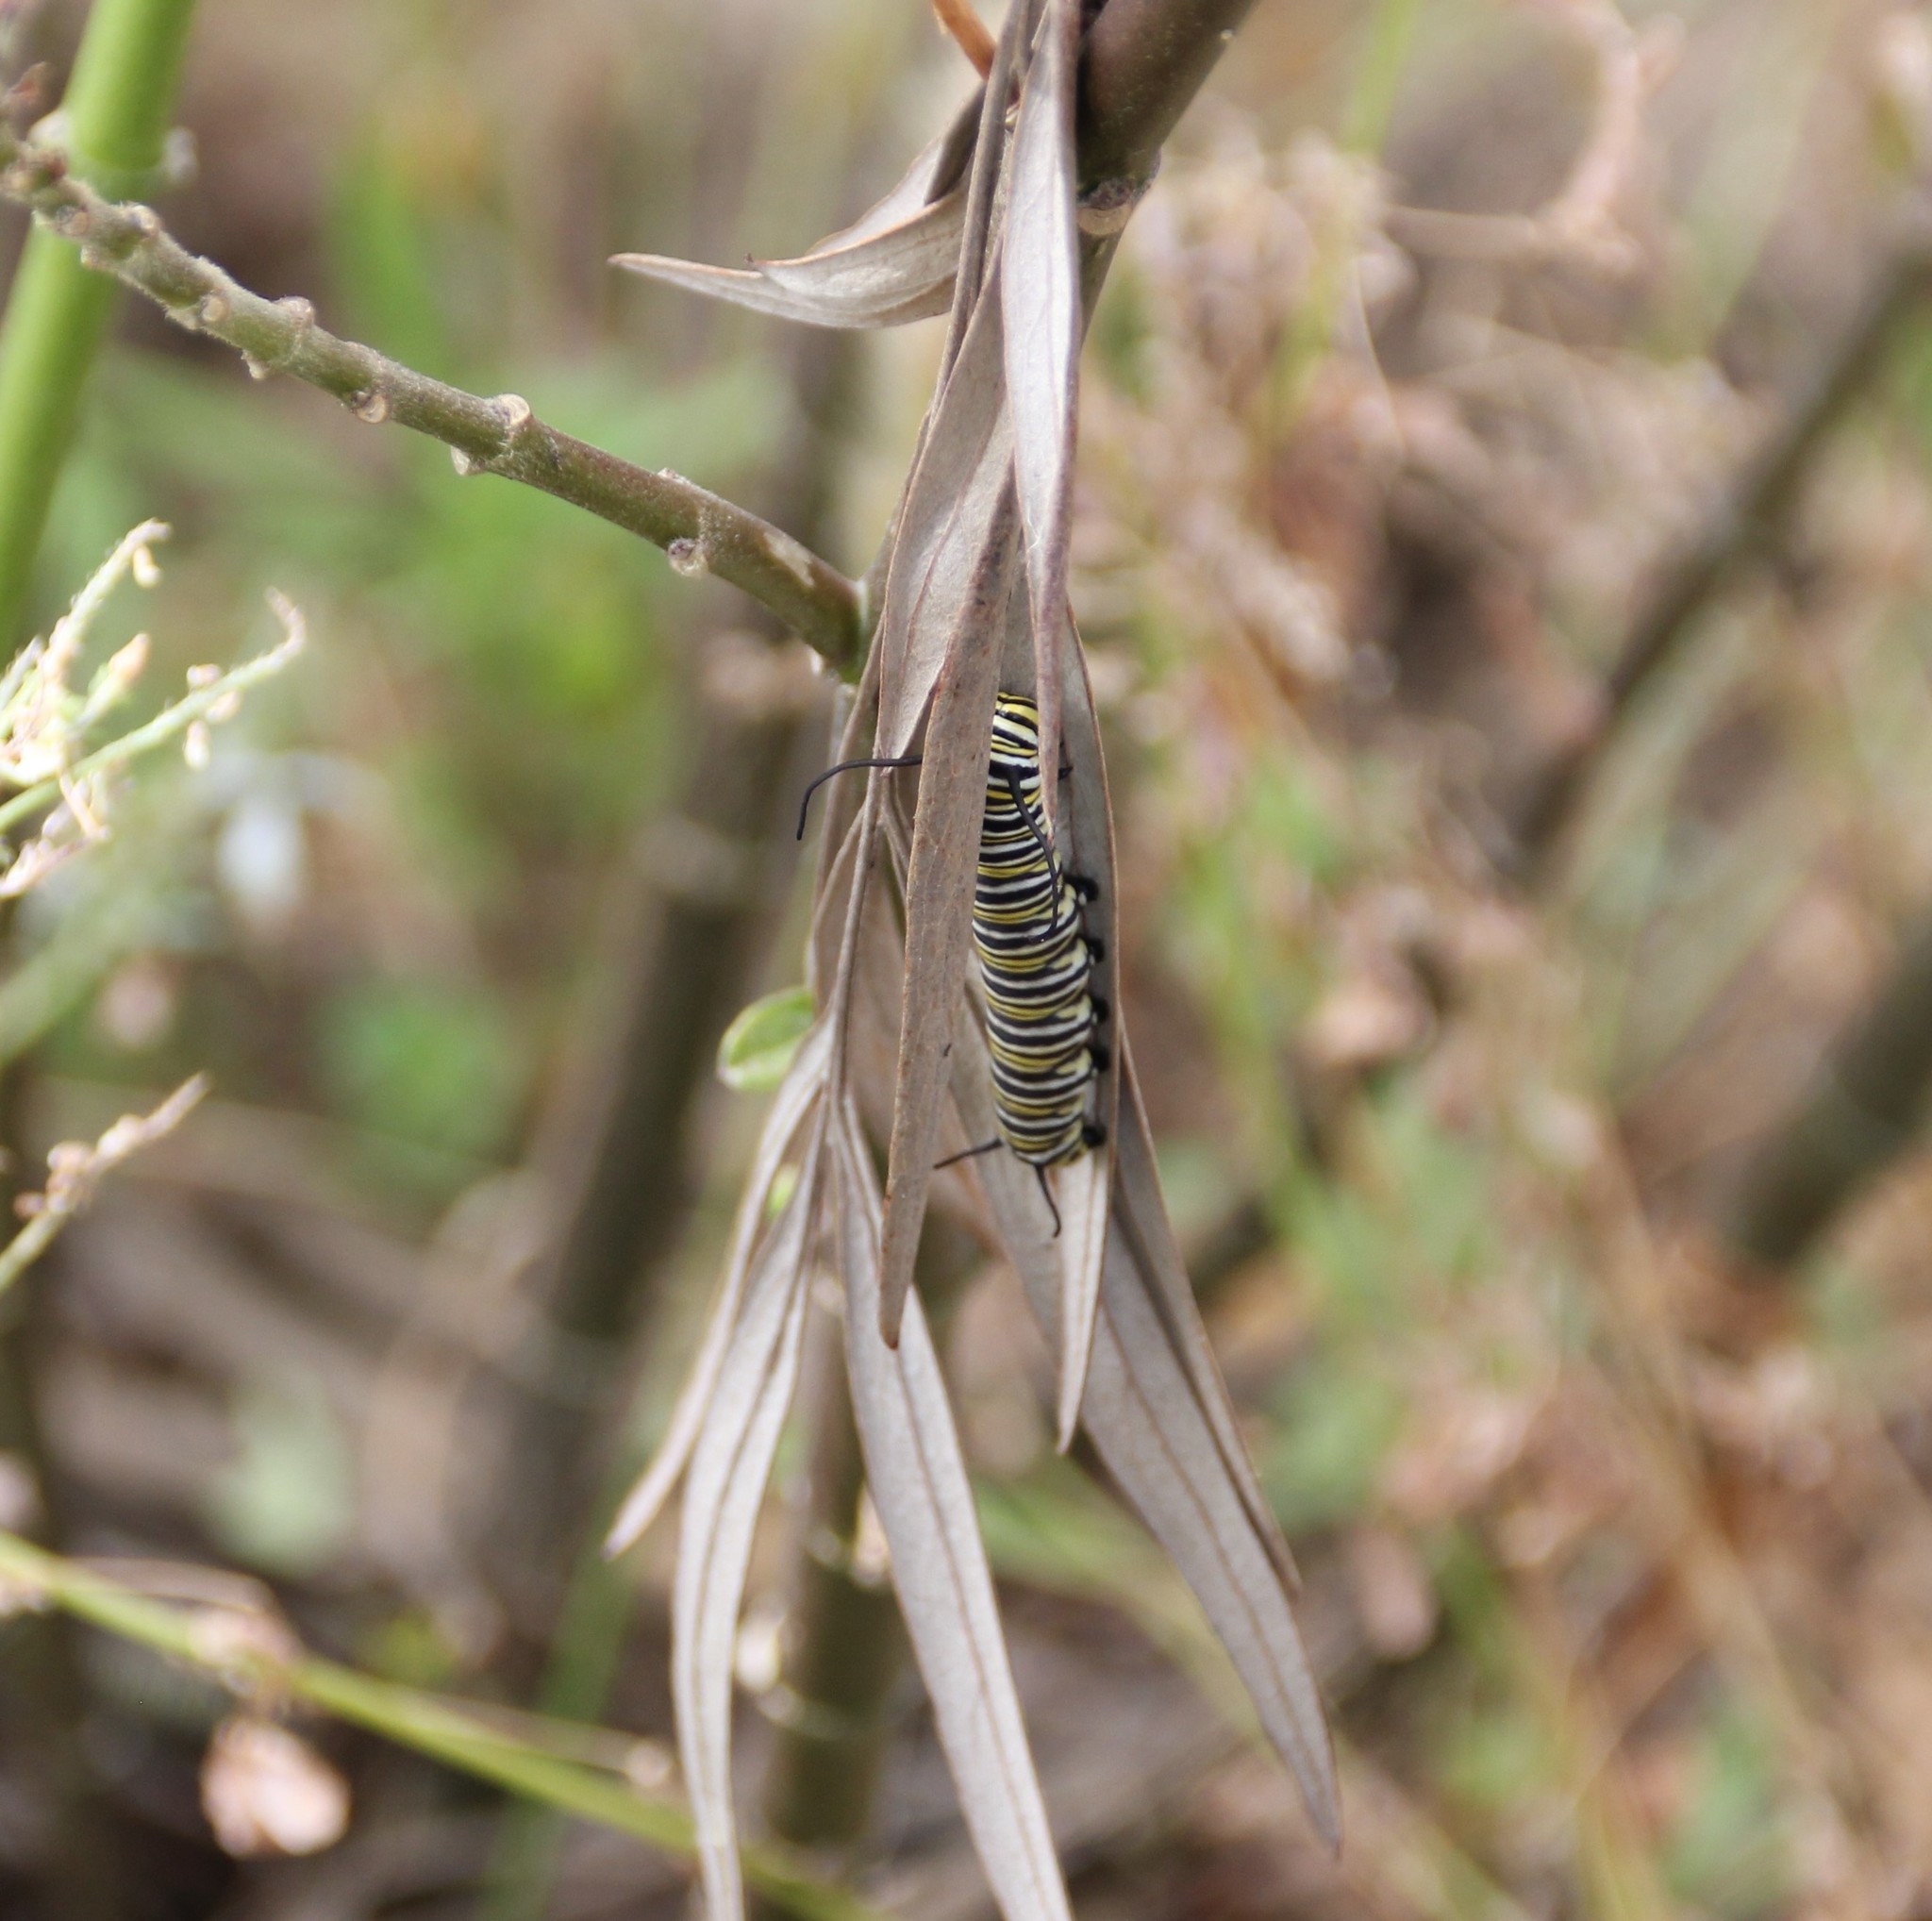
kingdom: Animalia
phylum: Arthropoda
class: Insecta
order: Lepidoptera
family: Nymphalidae
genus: Danaus
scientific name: Danaus plexippus
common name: Monarch
